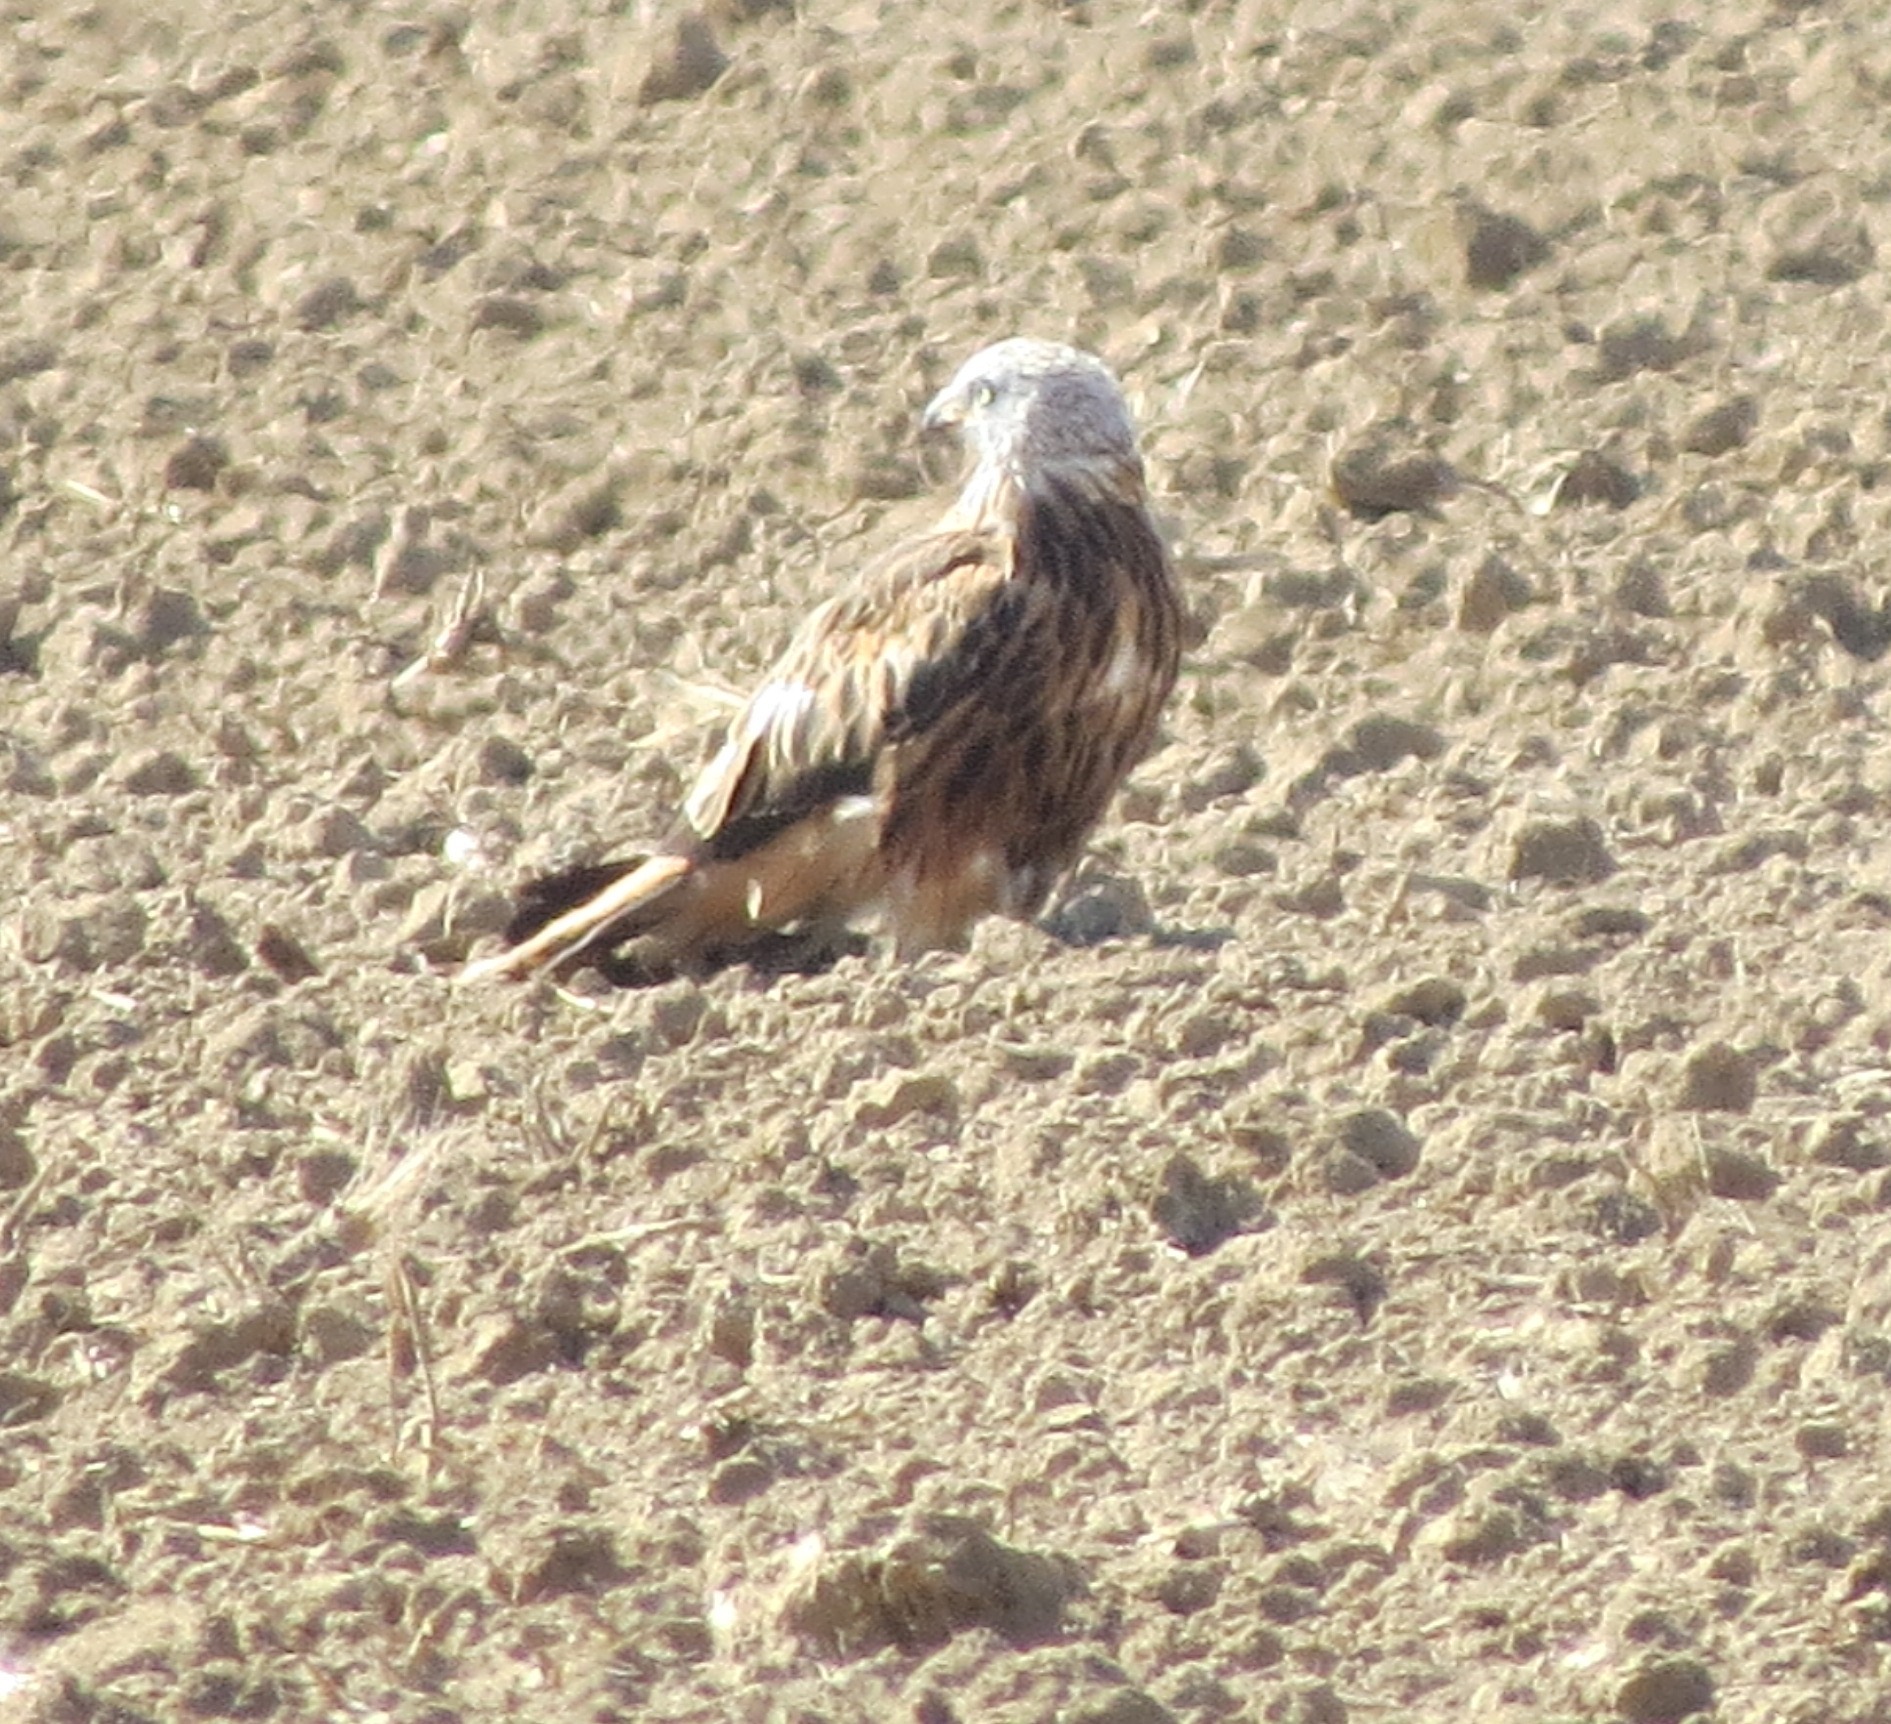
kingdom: Animalia
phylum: Chordata
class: Aves
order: Accipitriformes
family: Accipitridae
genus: Milvus
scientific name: Milvus milvus
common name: Red kite
